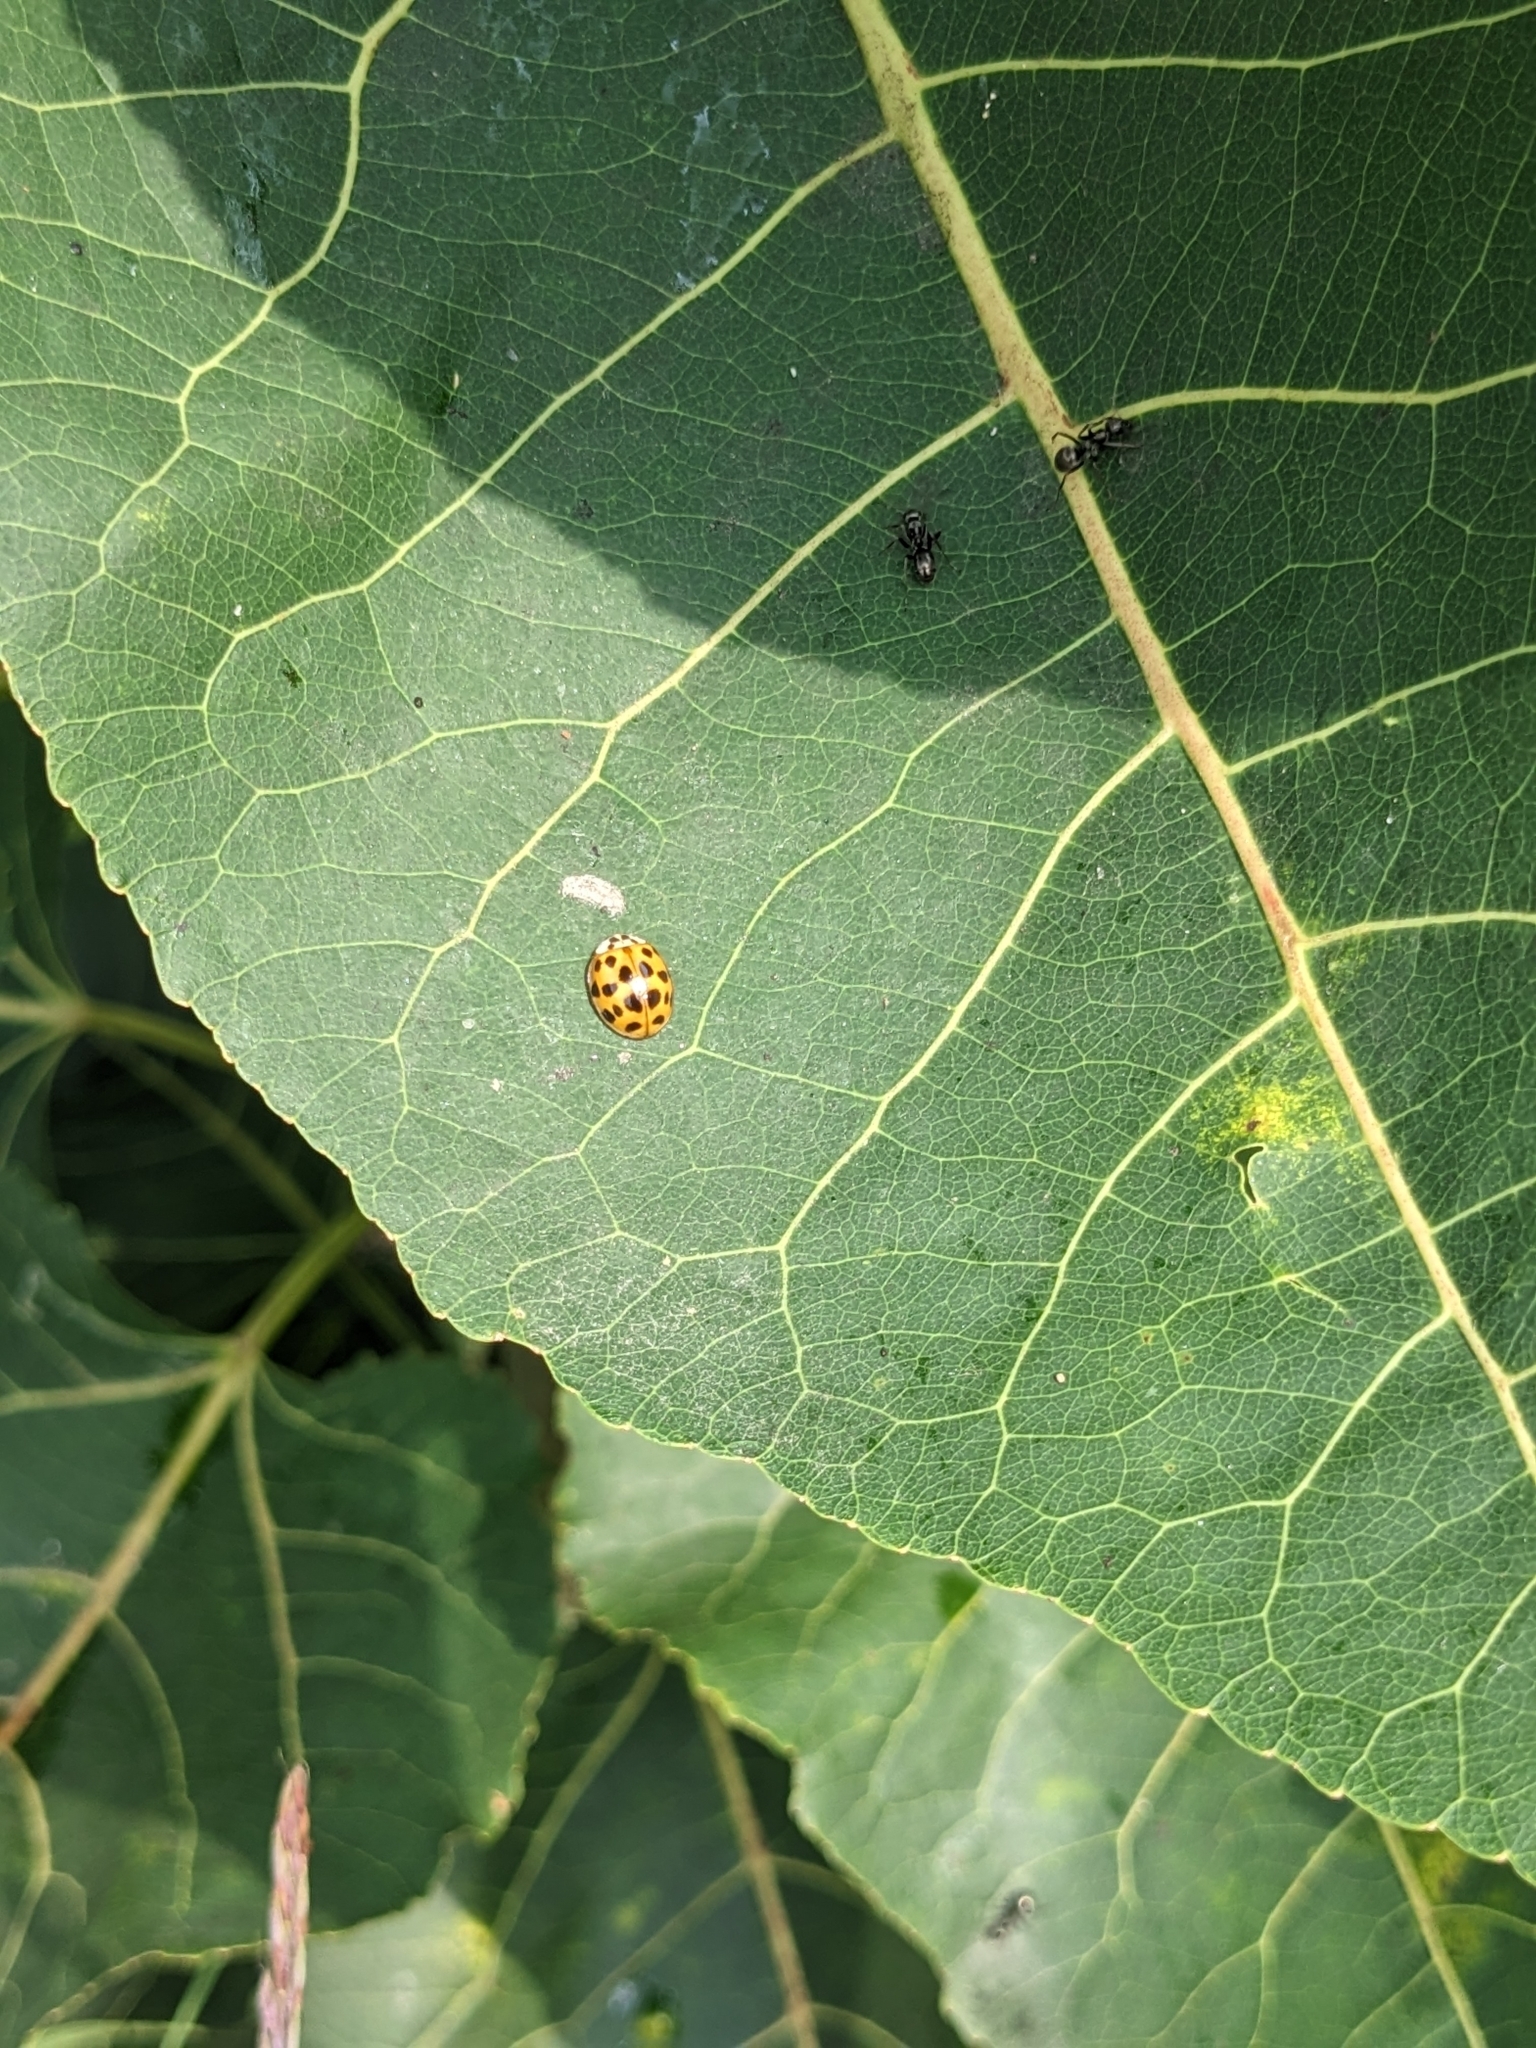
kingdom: Animalia
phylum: Arthropoda
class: Insecta
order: Coleoptera
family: Coccinellidae
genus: Harmonia
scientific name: Harmonia axyridis
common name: Harlequin ladybird
